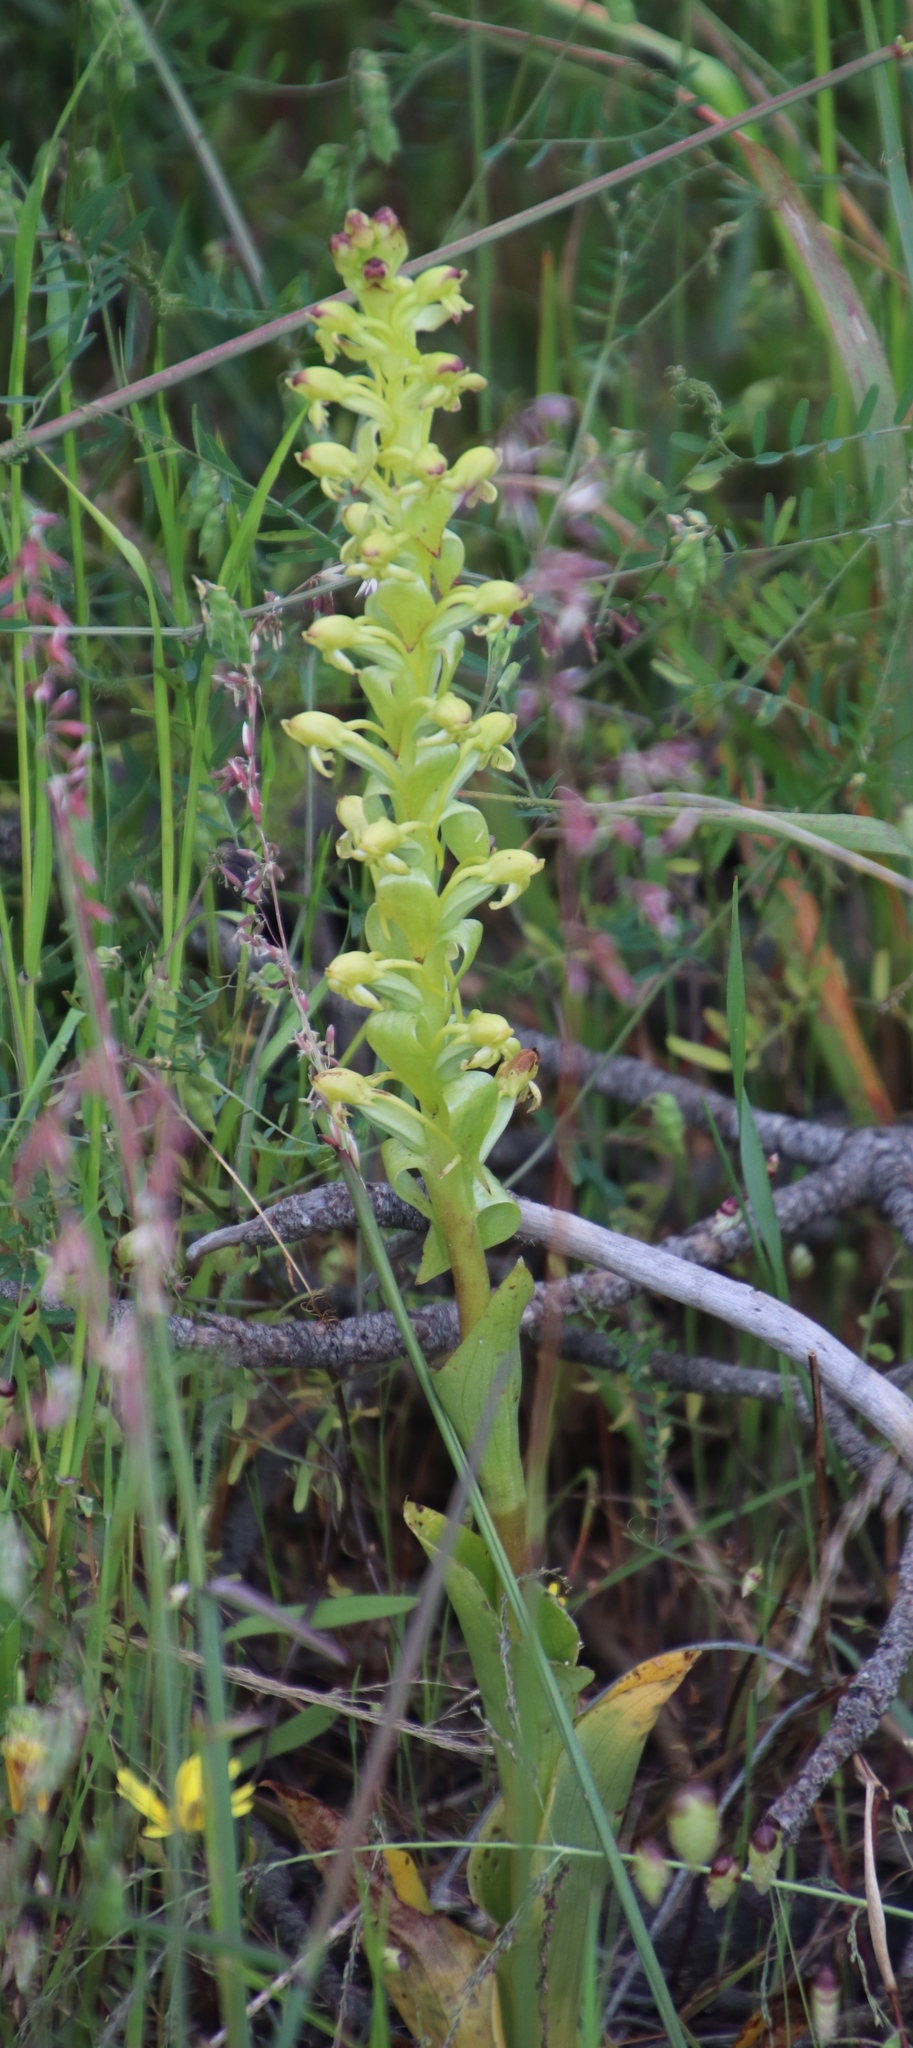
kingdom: Plantae
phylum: Tracheophyta
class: Liliopsida
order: Asparagales
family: Orchidaceae
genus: Satyrium
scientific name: Satyrium odorum
